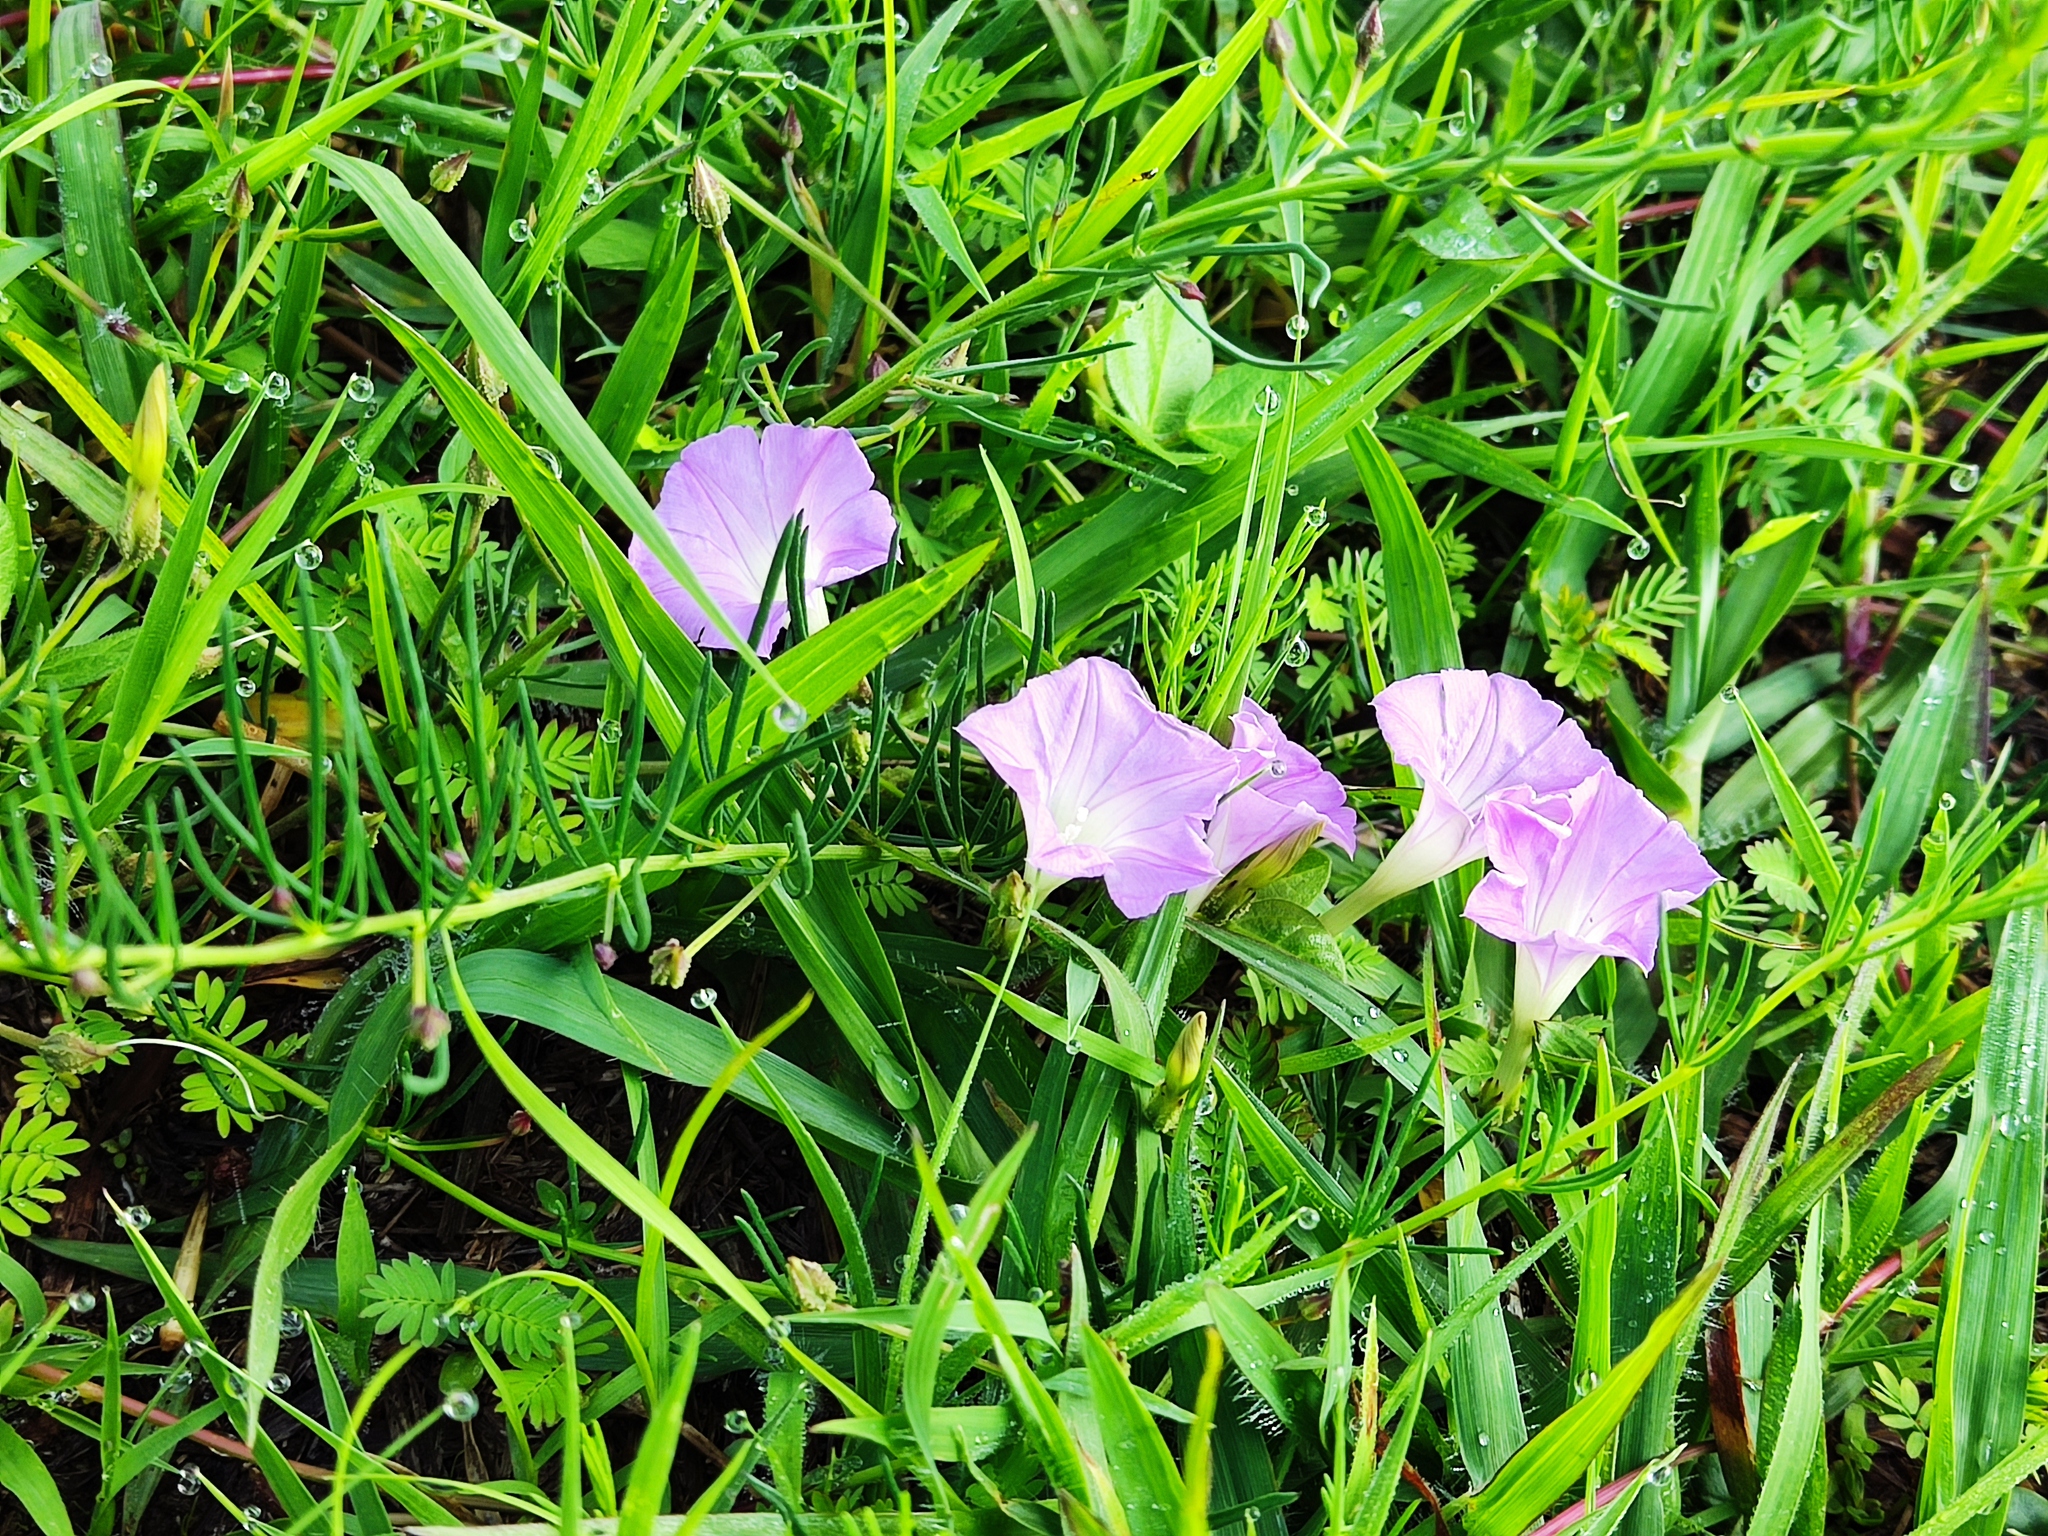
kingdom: Plantae
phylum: Tracheophyta
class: Magnoliopsida
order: Solanales
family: Convolvulaceae
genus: Ipomoea
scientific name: Ipomoea capillacea
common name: Purple morning-glory
